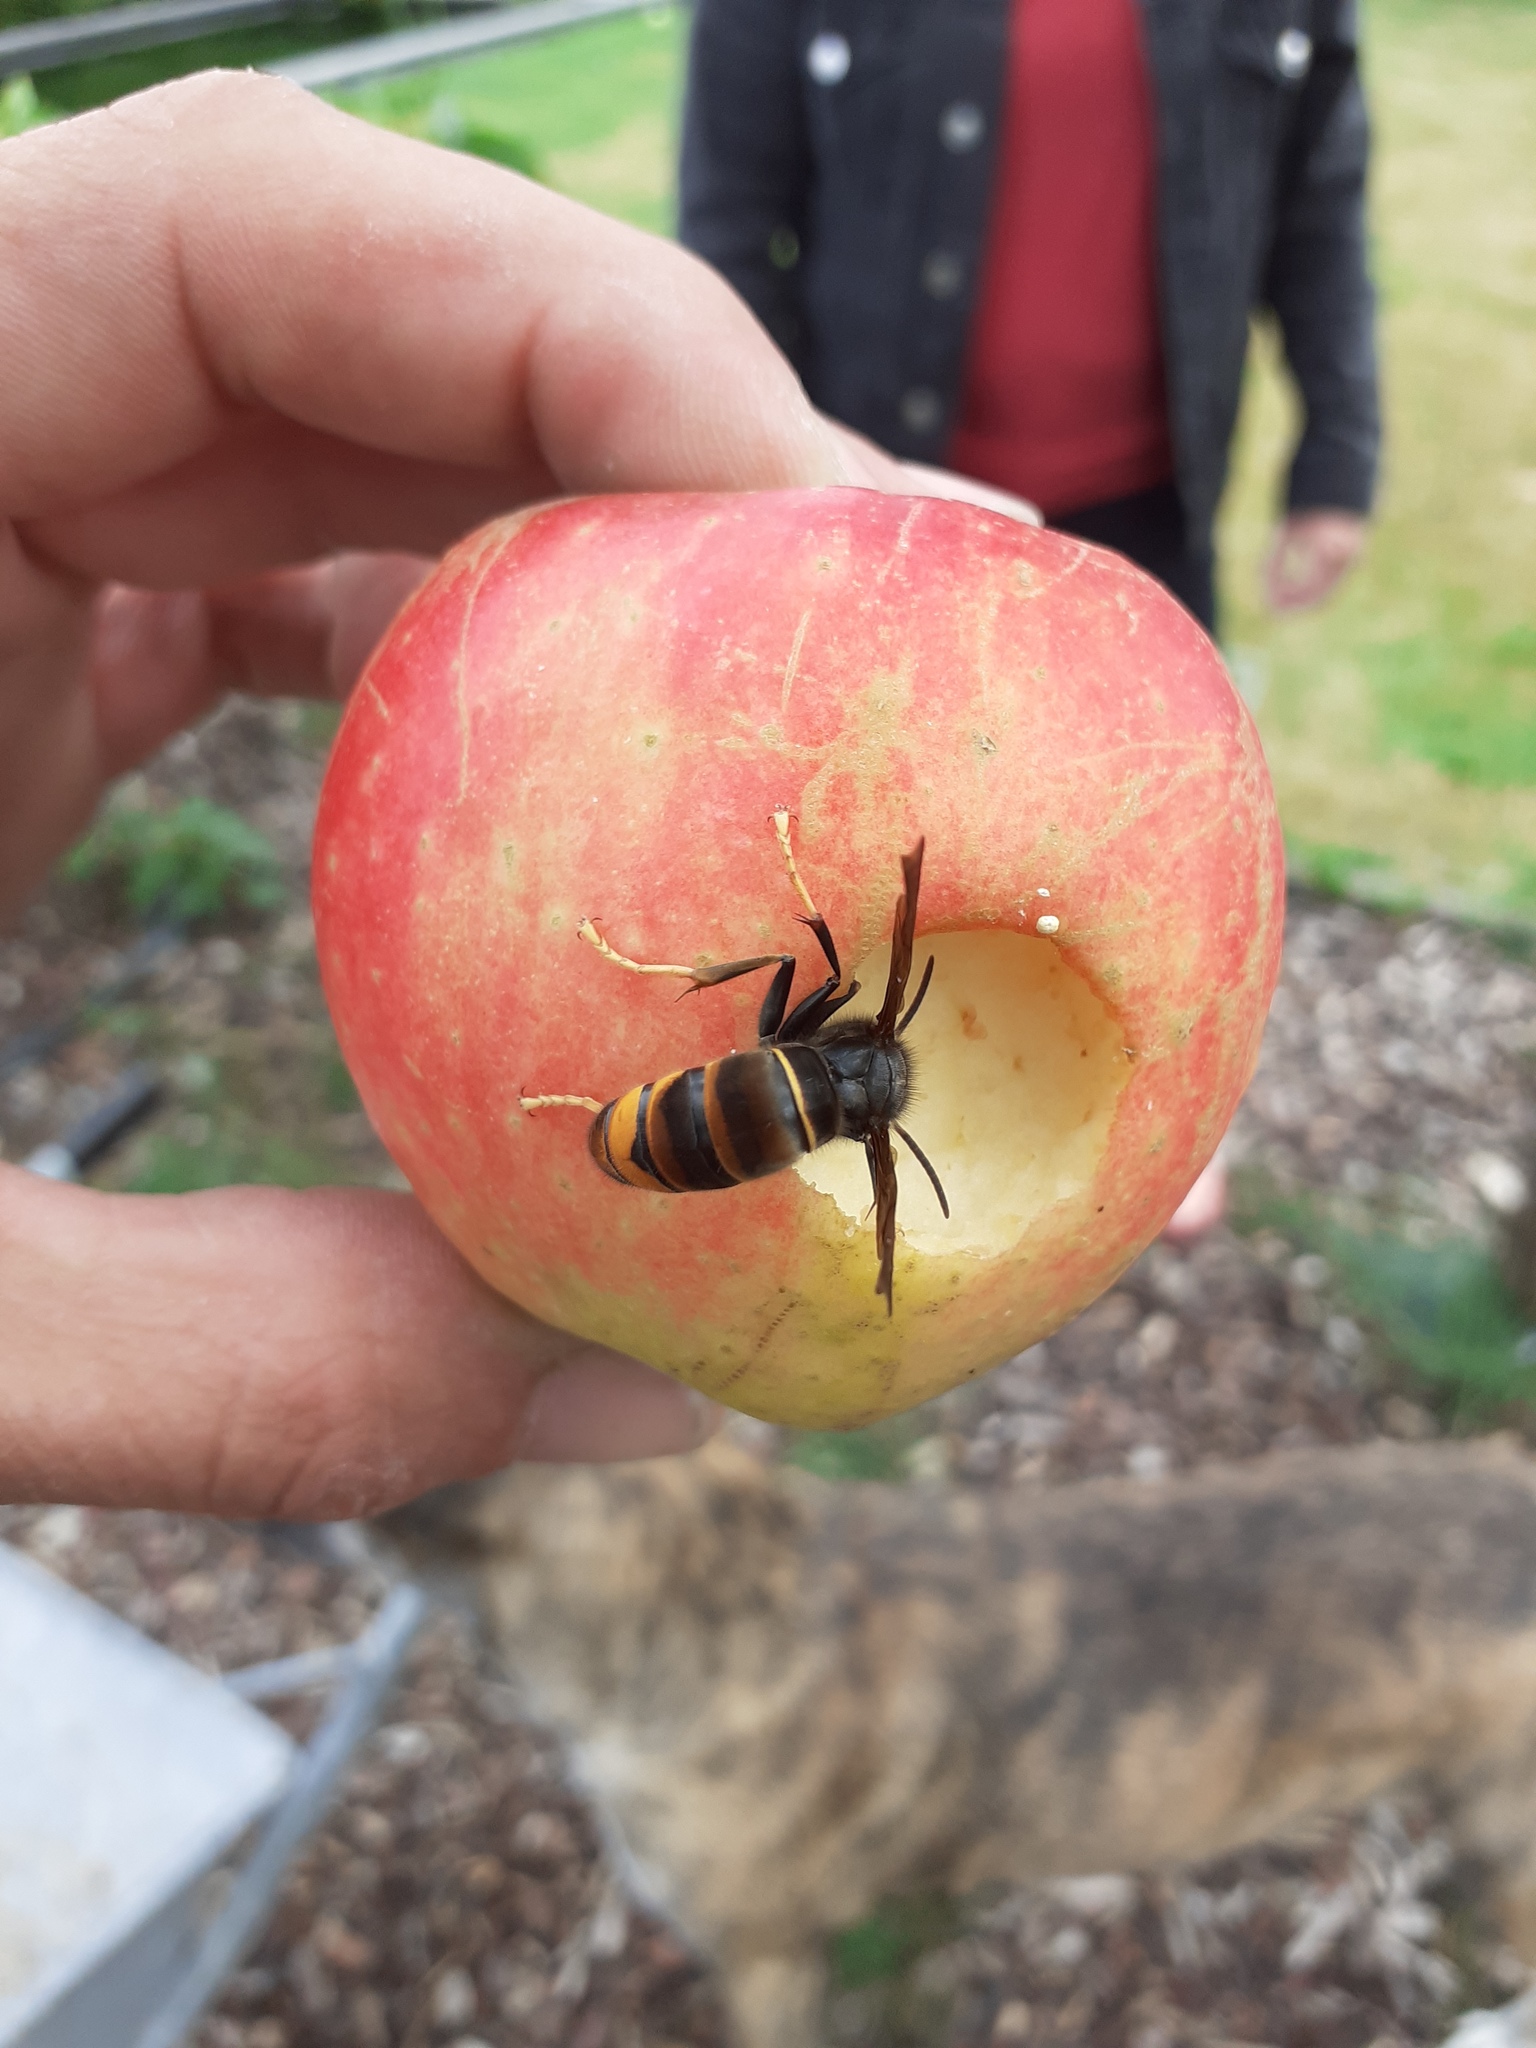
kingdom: Animalia
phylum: Arthropoda
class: Insecta
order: Hymenoptera
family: Vespidae
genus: Vespa
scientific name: Vespa velutina
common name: Asian hornet
